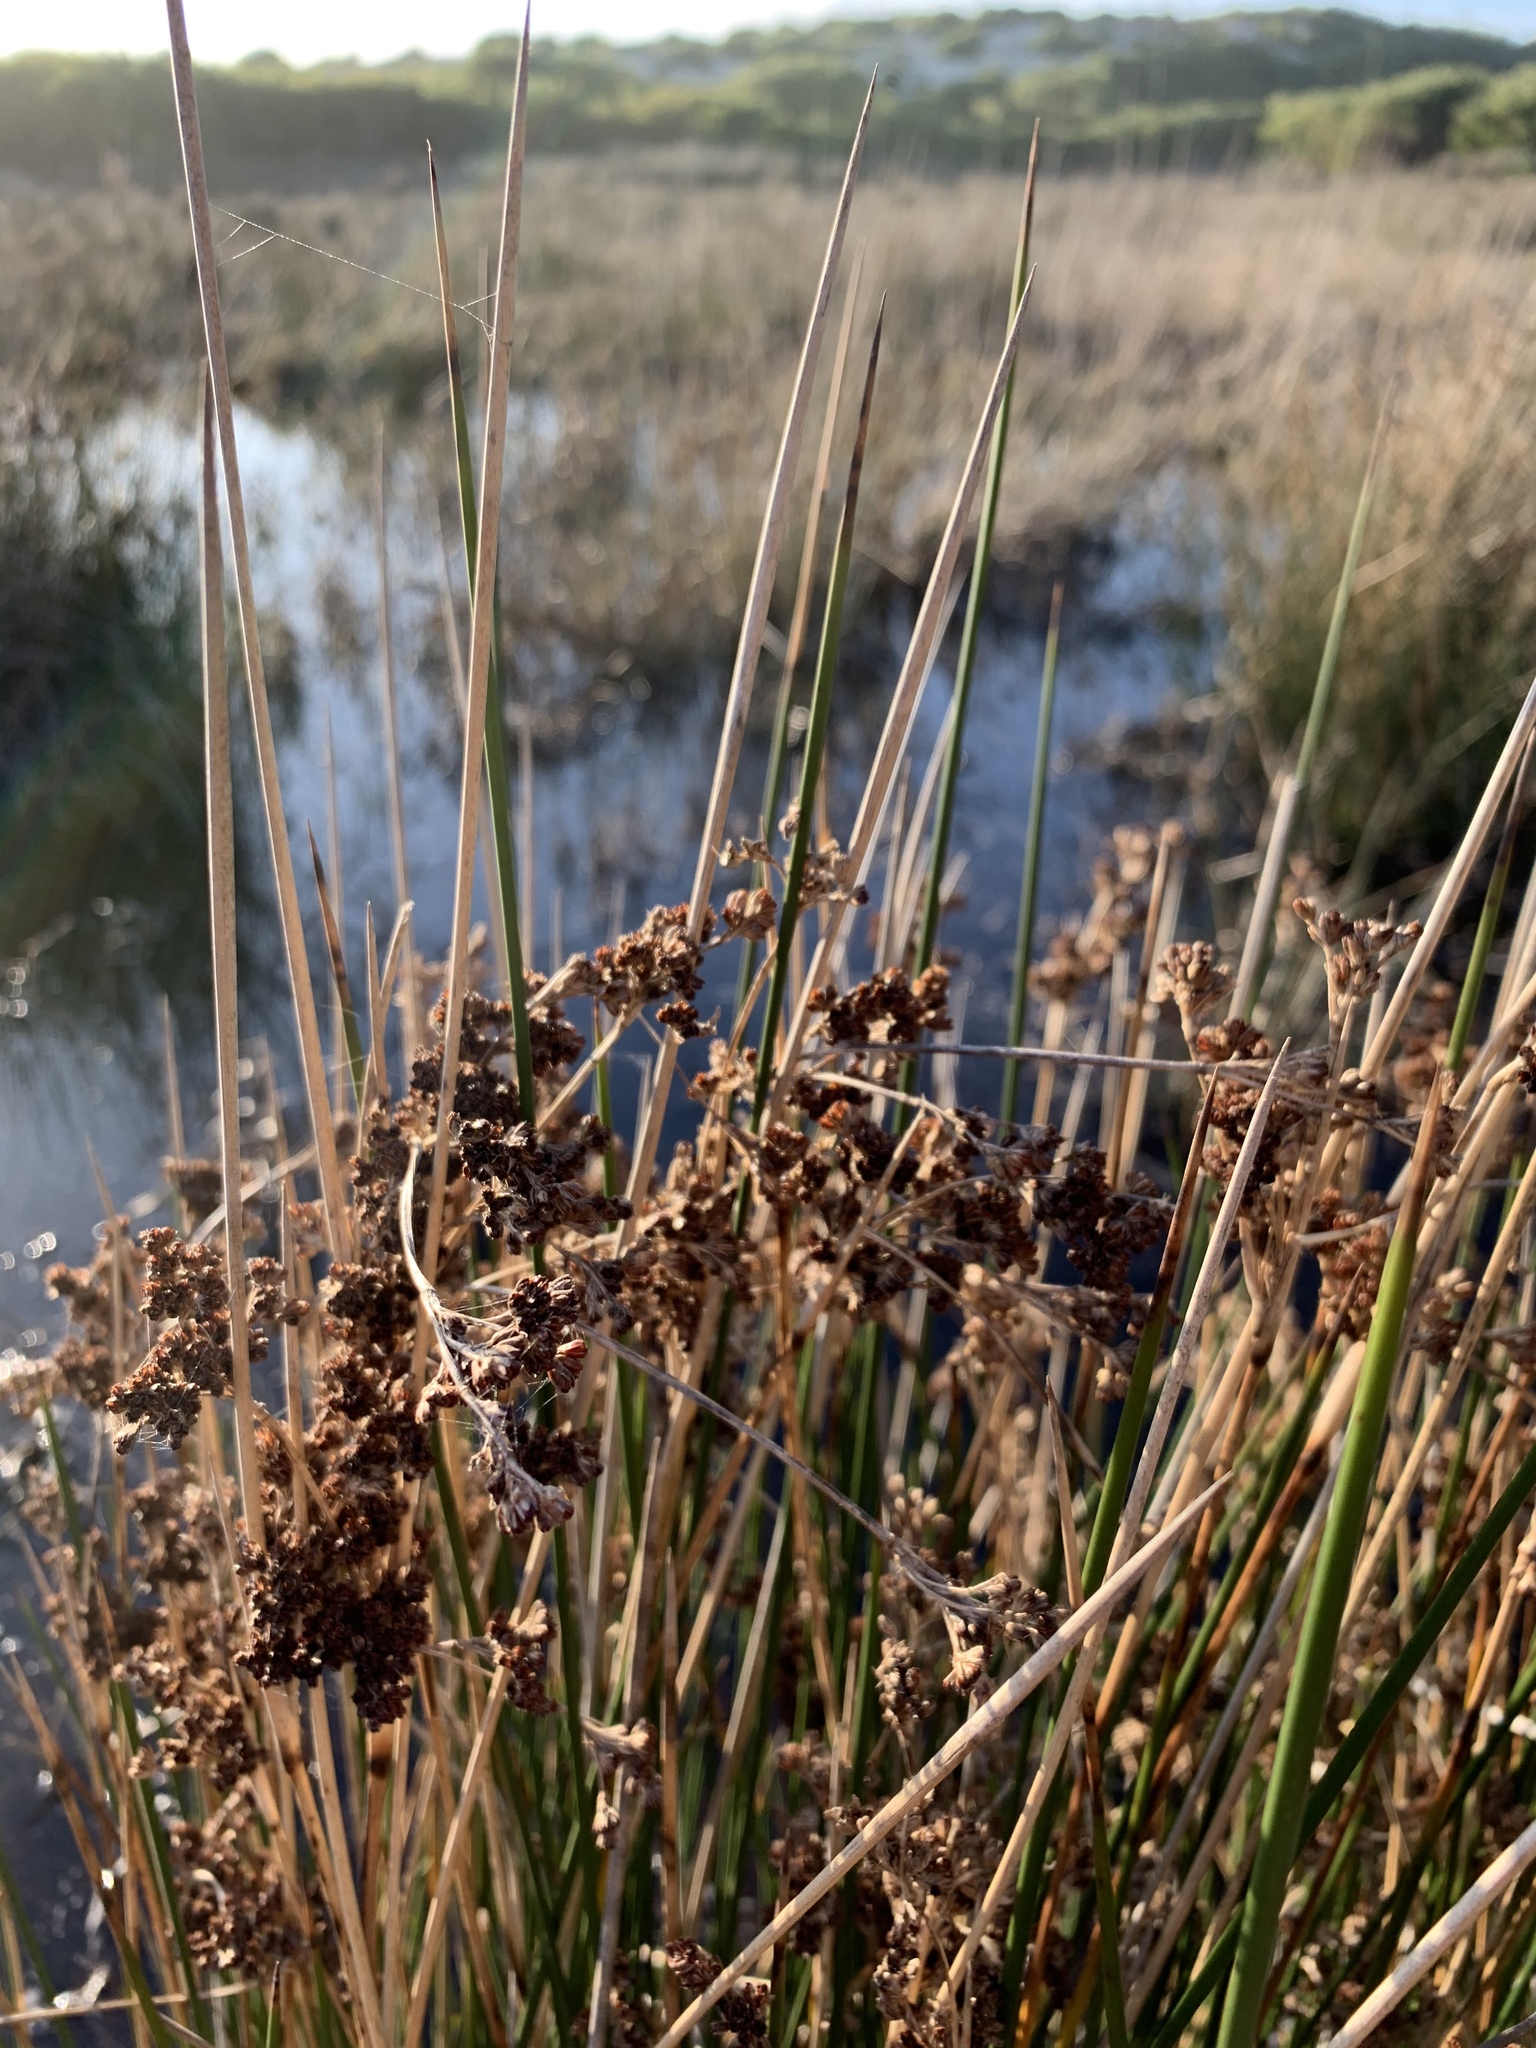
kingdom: Plantae
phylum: Tracheophyta
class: Liliopsida
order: Poales
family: Juncaceae
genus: Juncus
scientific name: Juncus kraussii
